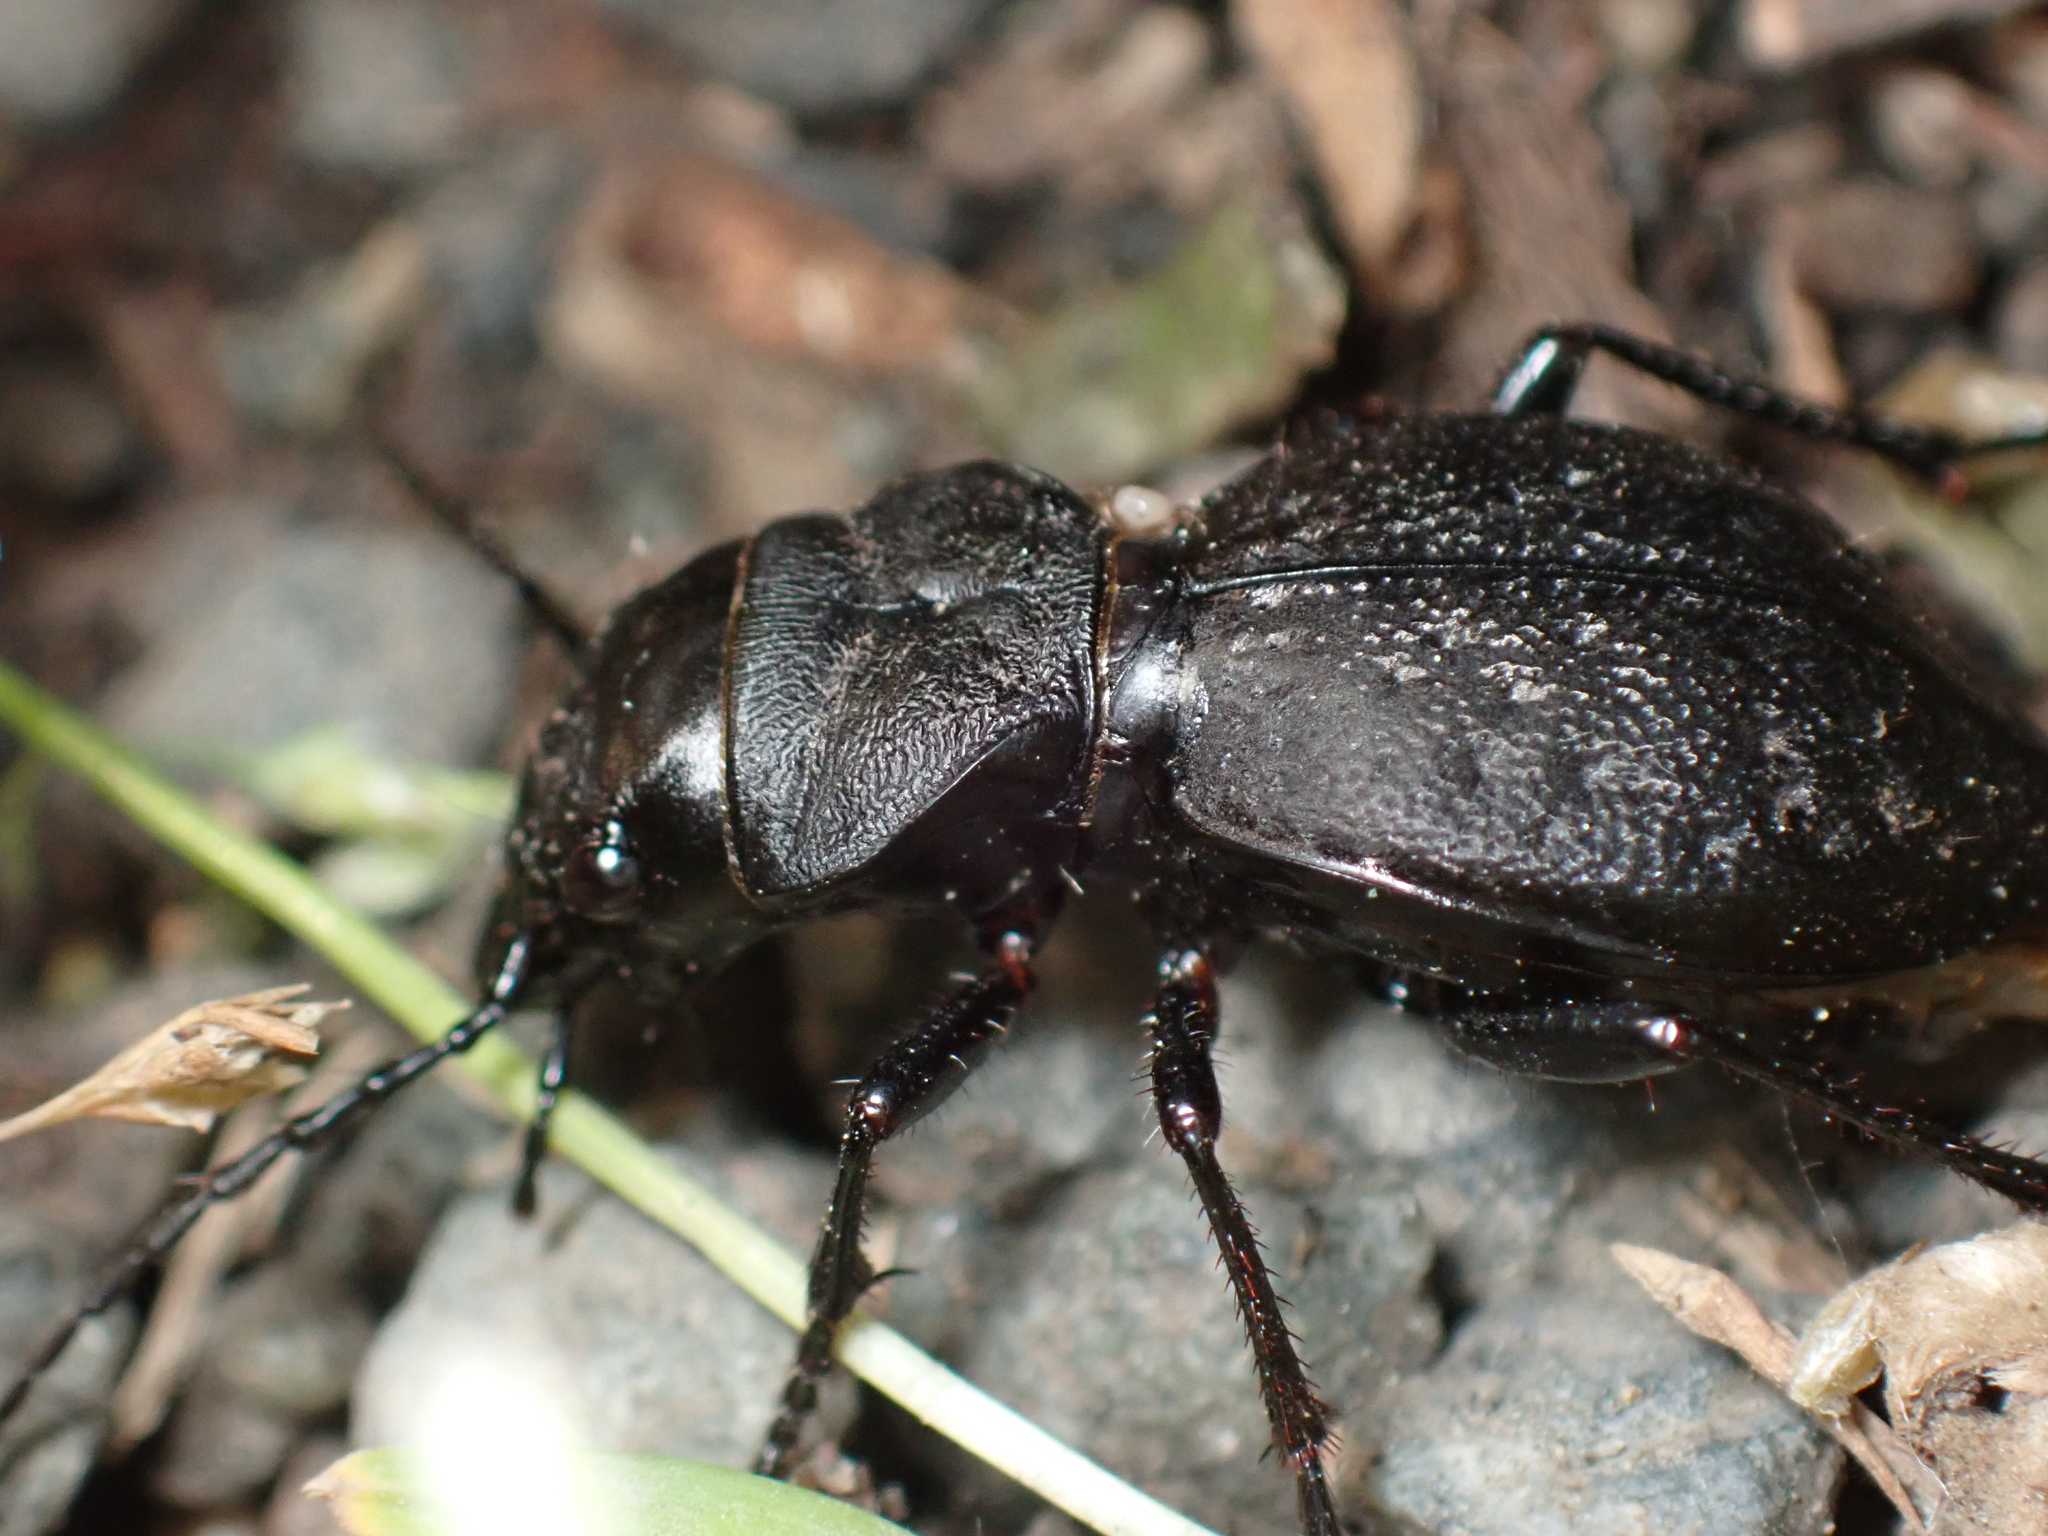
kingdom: Animalia
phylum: Arthropoda
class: Insecta
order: Coleoptera
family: Carabidae
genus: Omus
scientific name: Omus dejeanii
